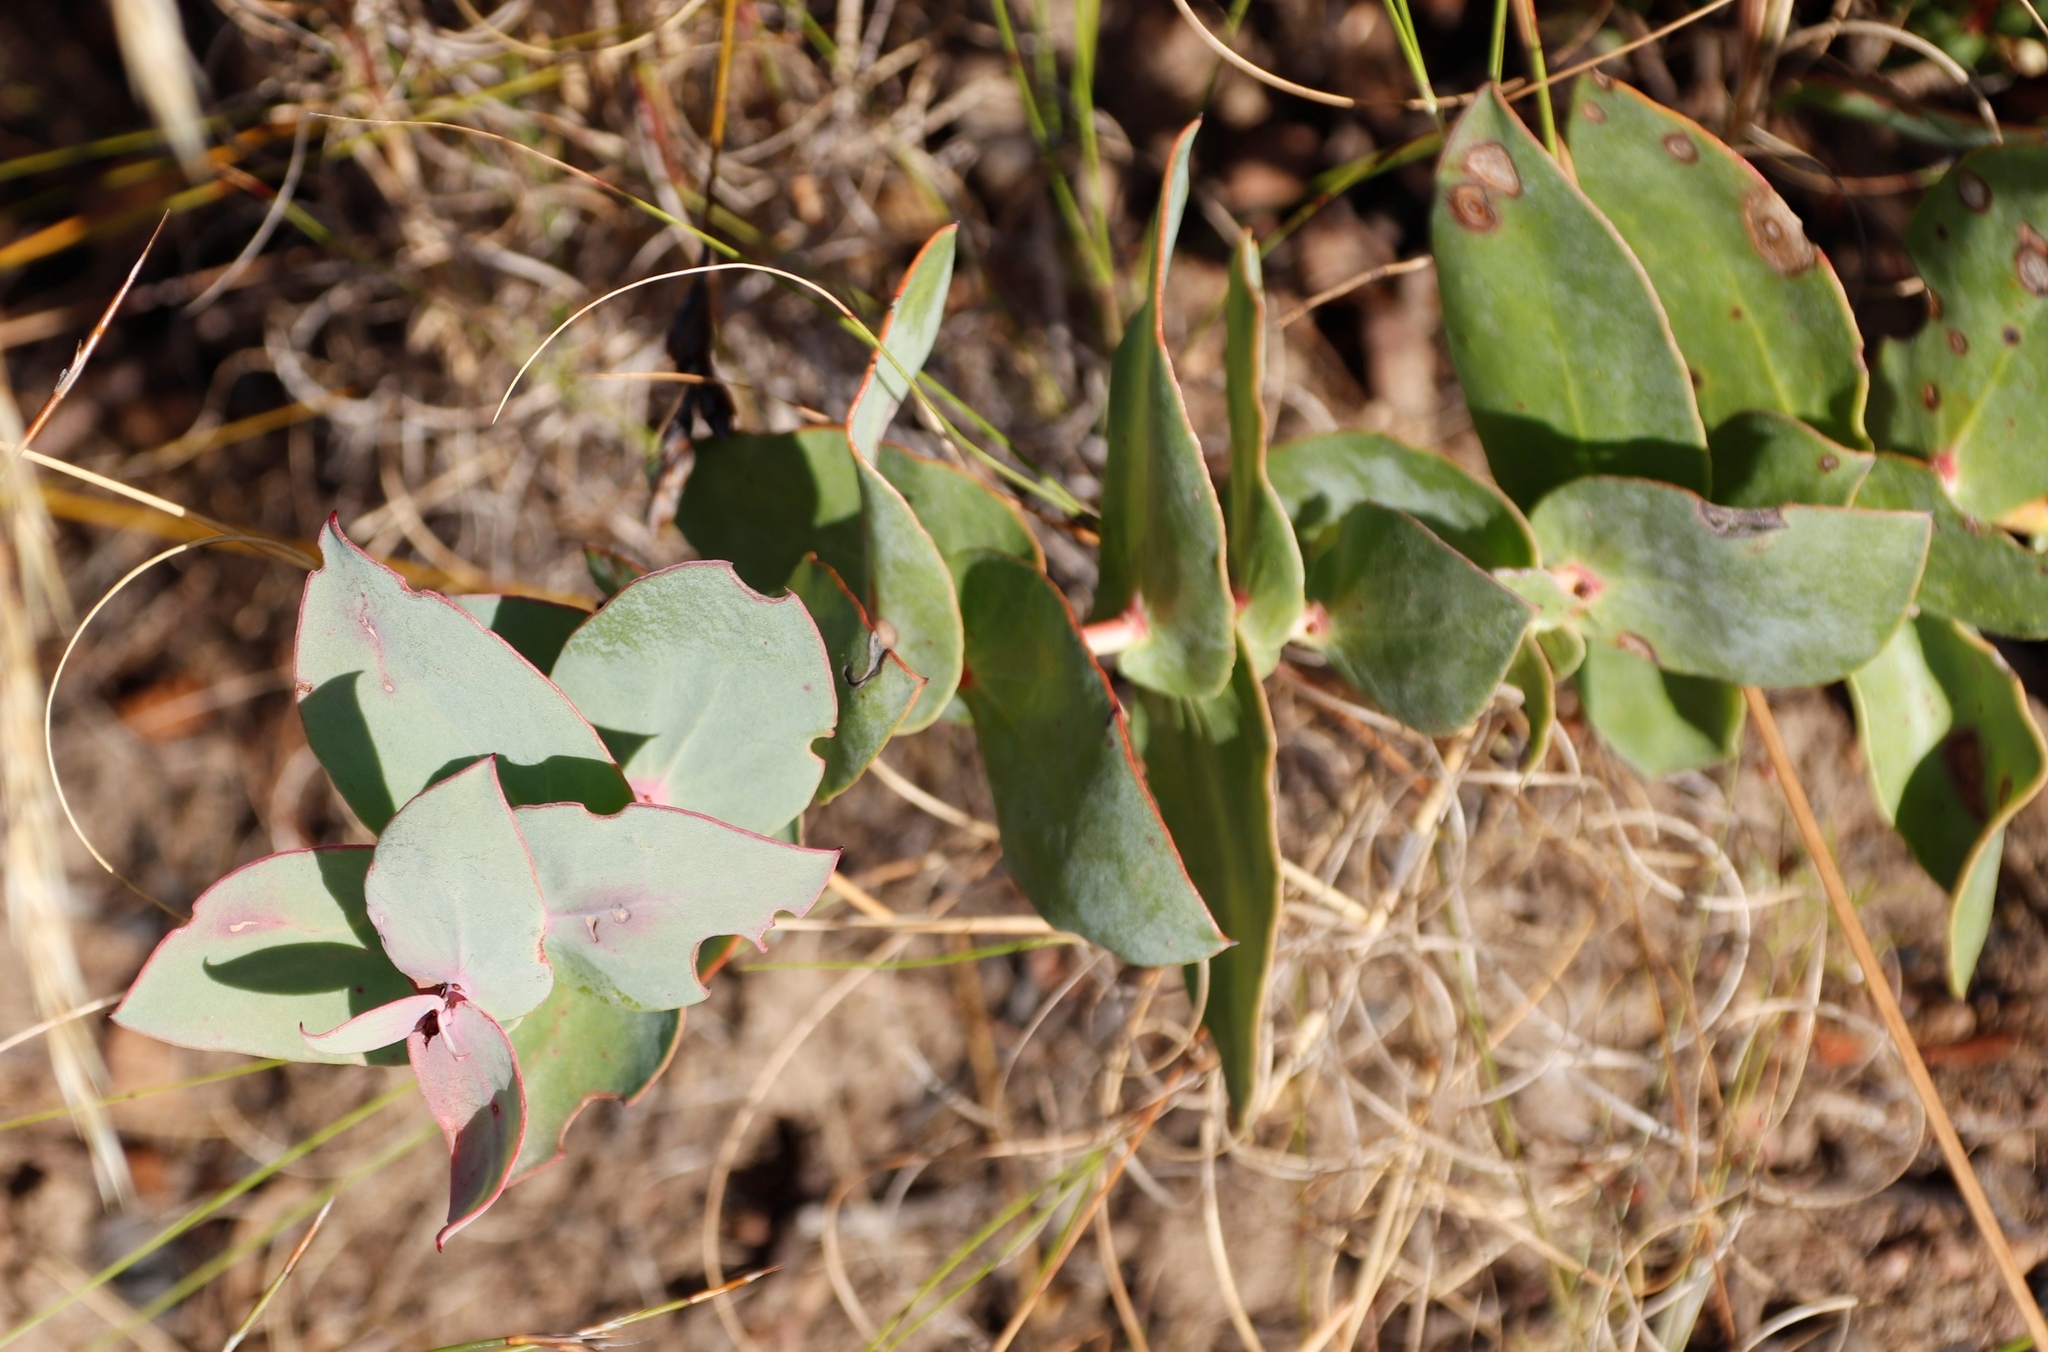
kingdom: Plantae
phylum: Tracheophyta
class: Magnoliopsida
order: Proteales
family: Proteaceae
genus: Protea
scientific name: Protea amplexicaulis
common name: Clasping-leaf sugarbush
